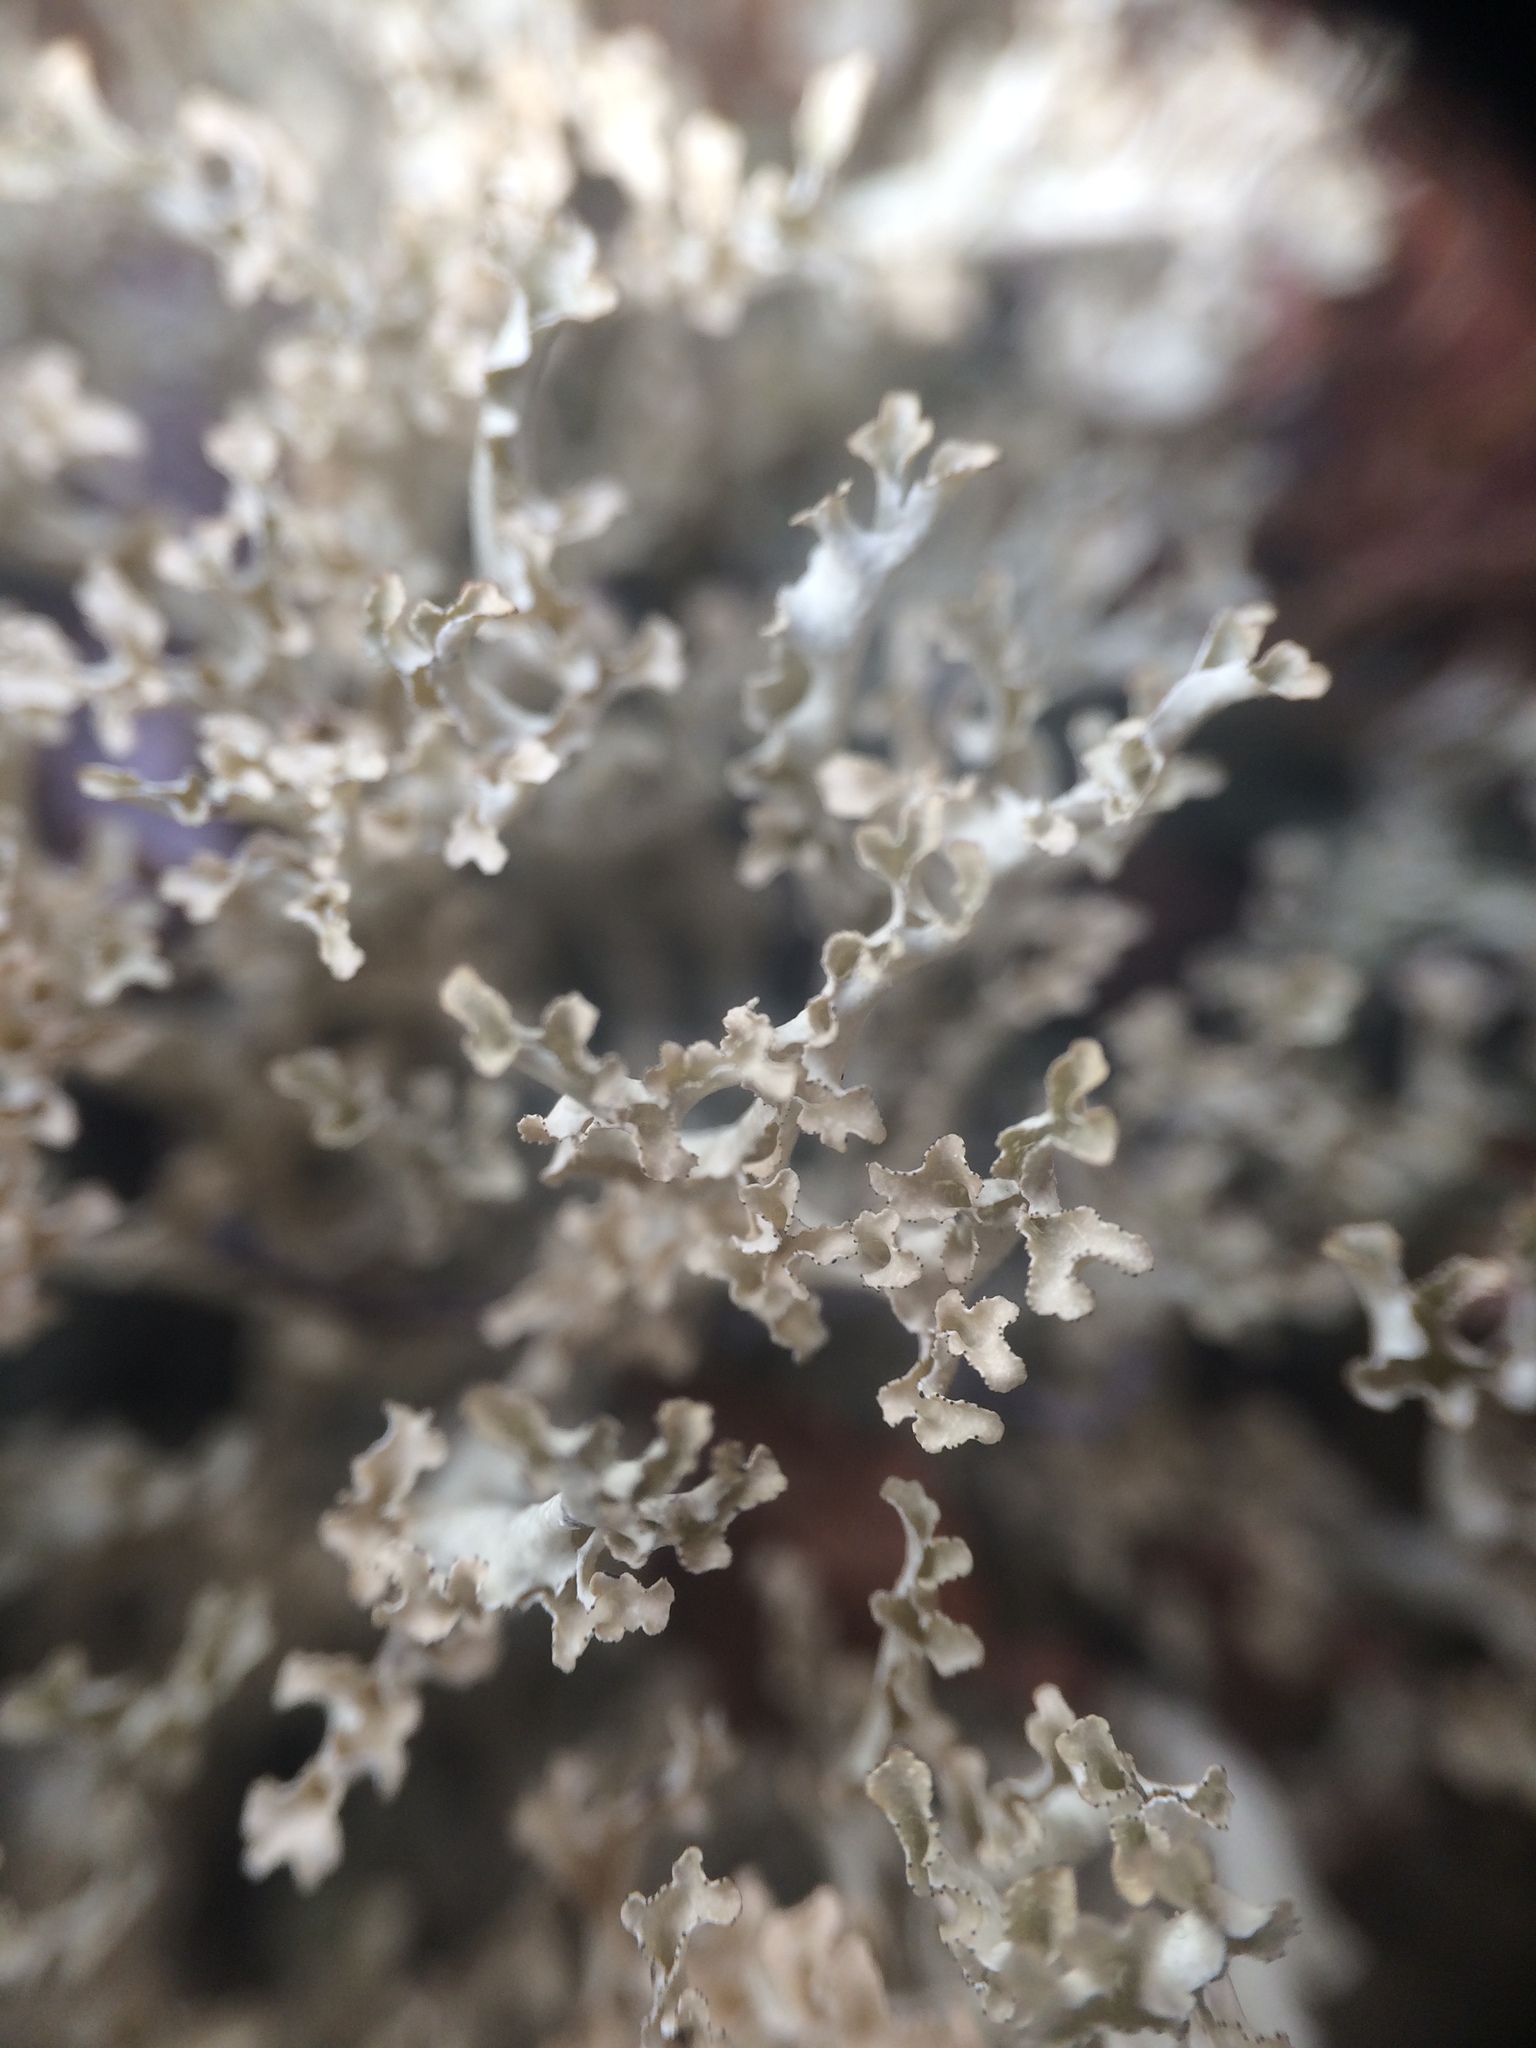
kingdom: Fungi
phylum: Ascomycota
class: Lecanoromycetes
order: Lecanorales
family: Parmeliaceae
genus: Nephromopsis
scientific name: Nephromopsis cucullata
